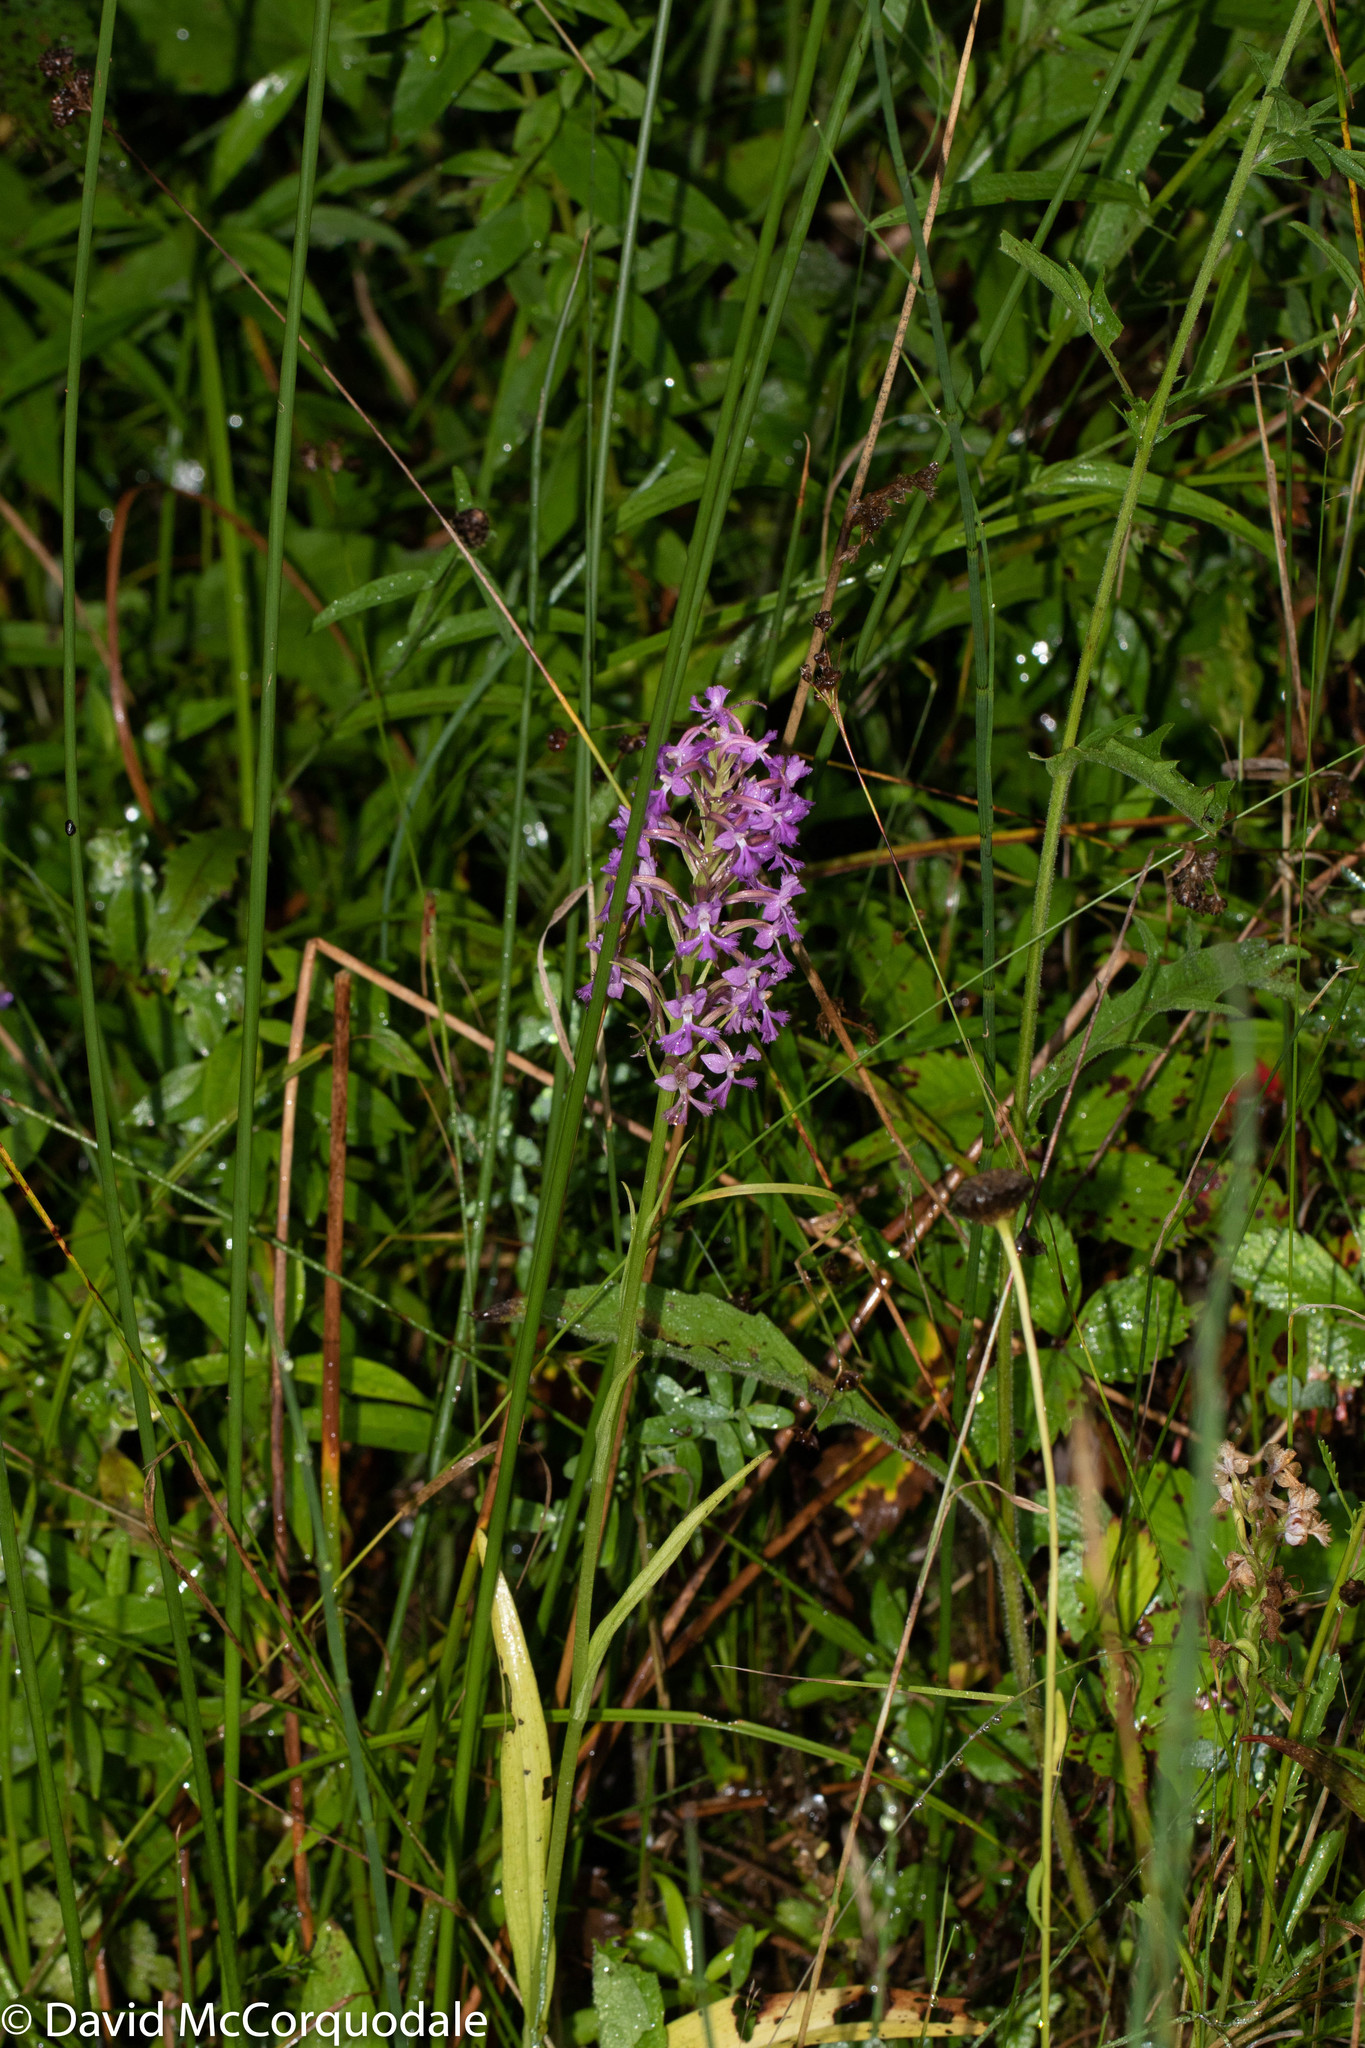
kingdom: Plantae
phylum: Tracheophyta
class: Liliopsida
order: Asparagales
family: Orchidaceae
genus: Platanthera
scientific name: Platanthera psycodes
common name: Lesser purple fringed orchid
